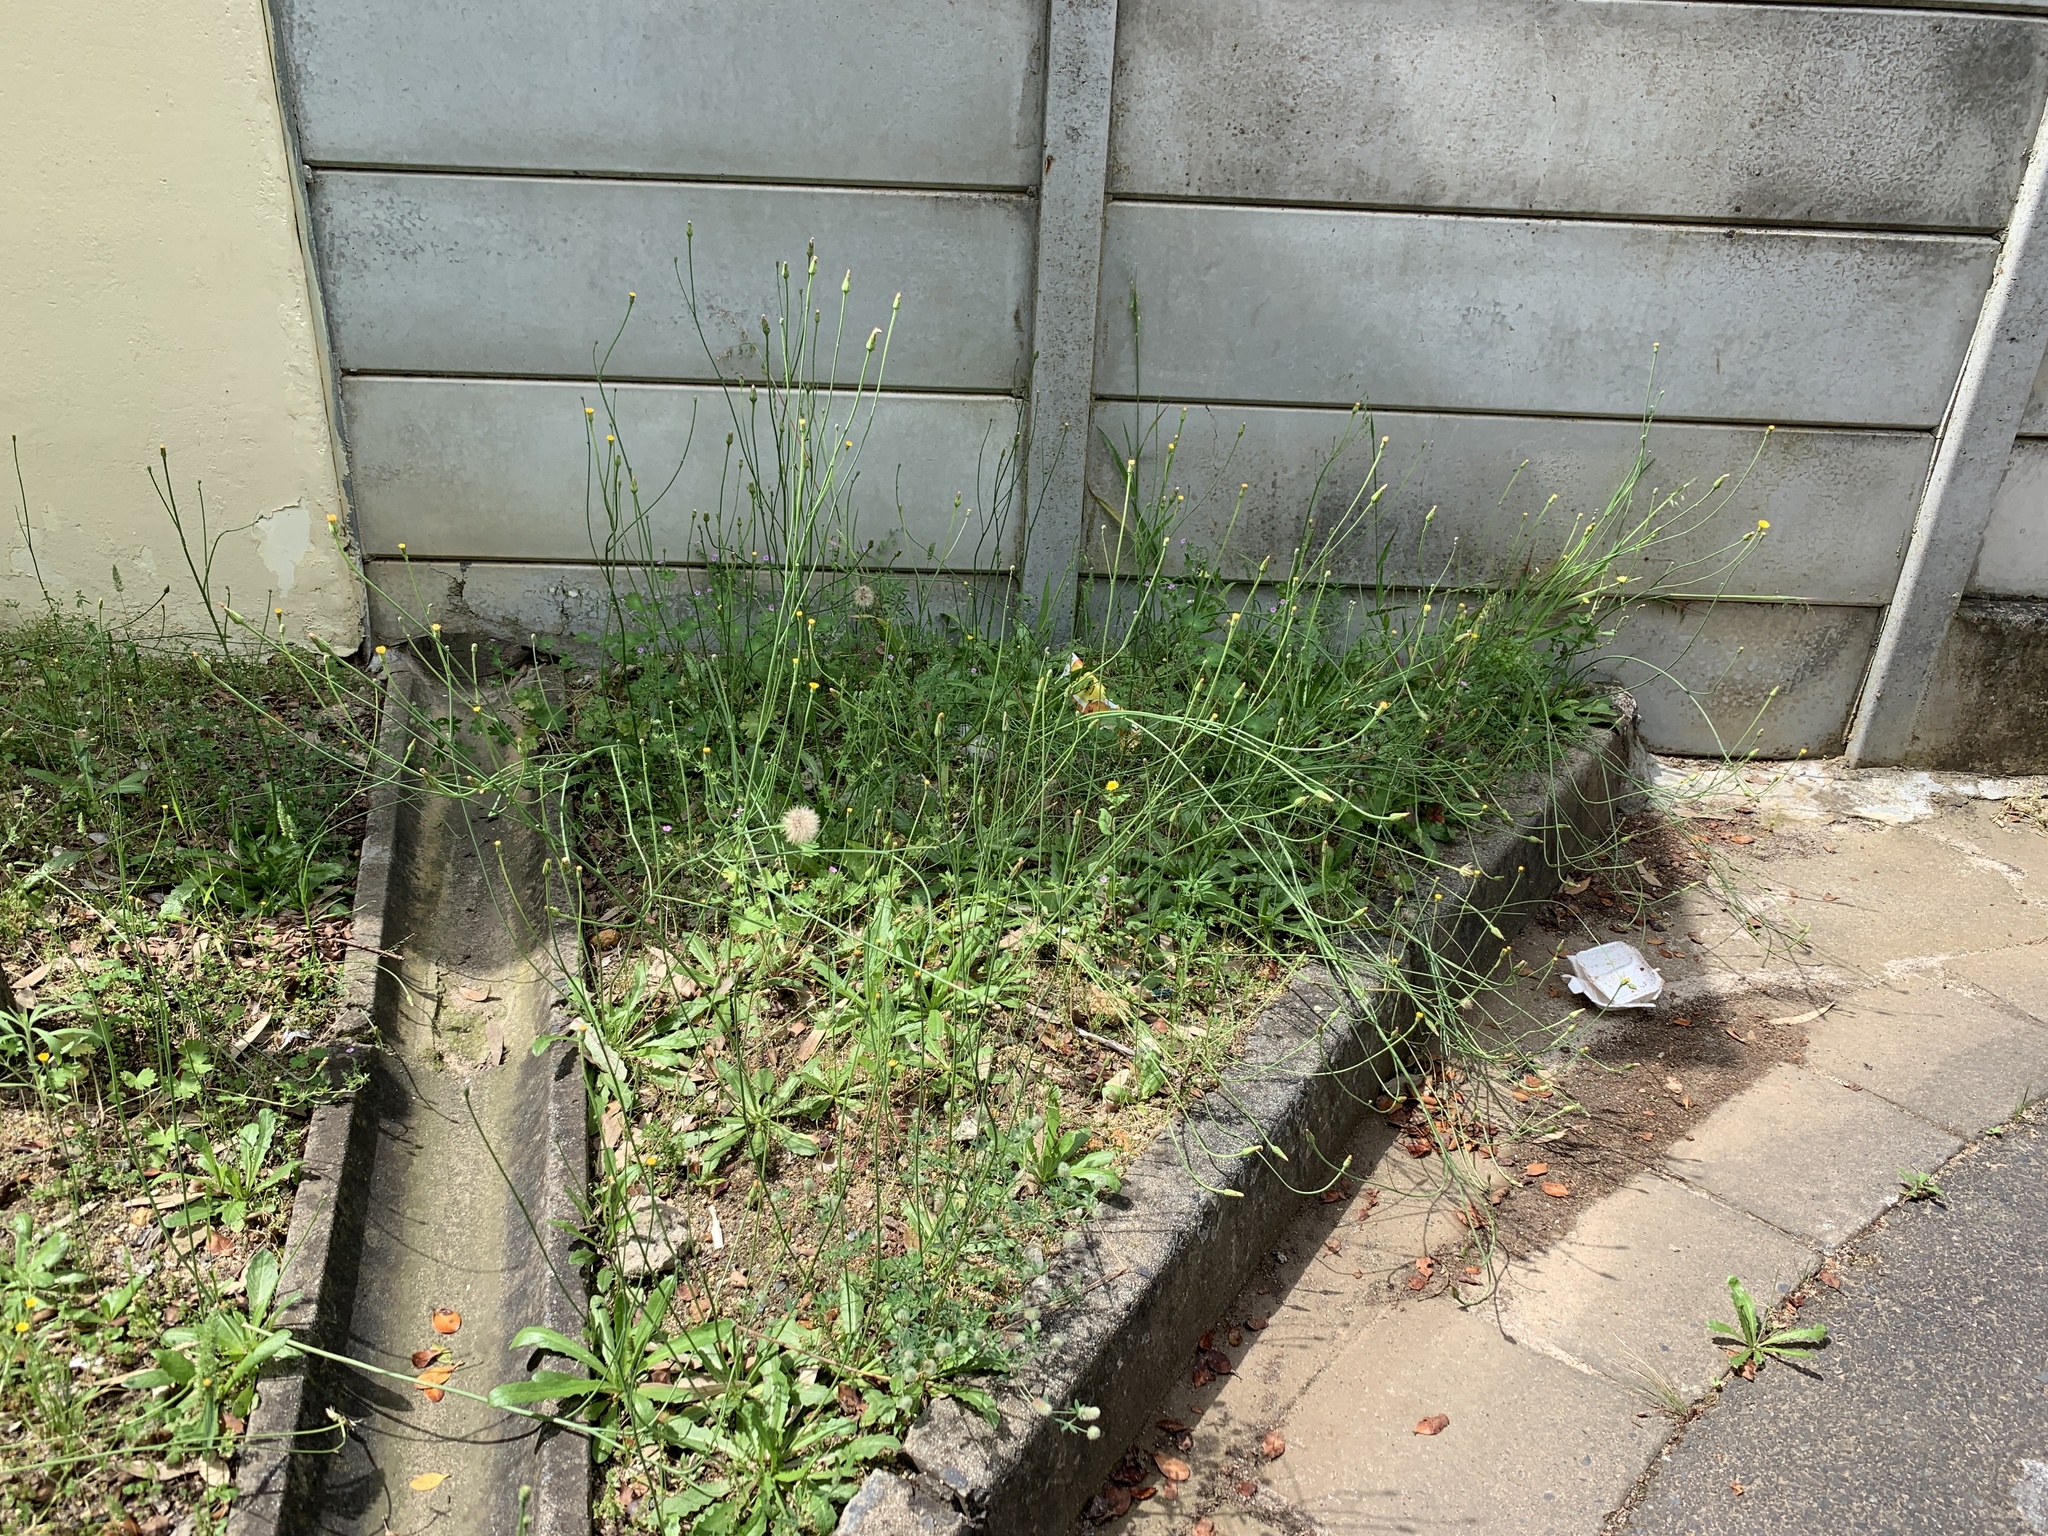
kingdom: Plantae
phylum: Tracheophyta
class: Magnoliopsida
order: Asterales
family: Asteraceae
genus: Hypochaeris
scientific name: Hypochaeris radicata
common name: Flatweed
